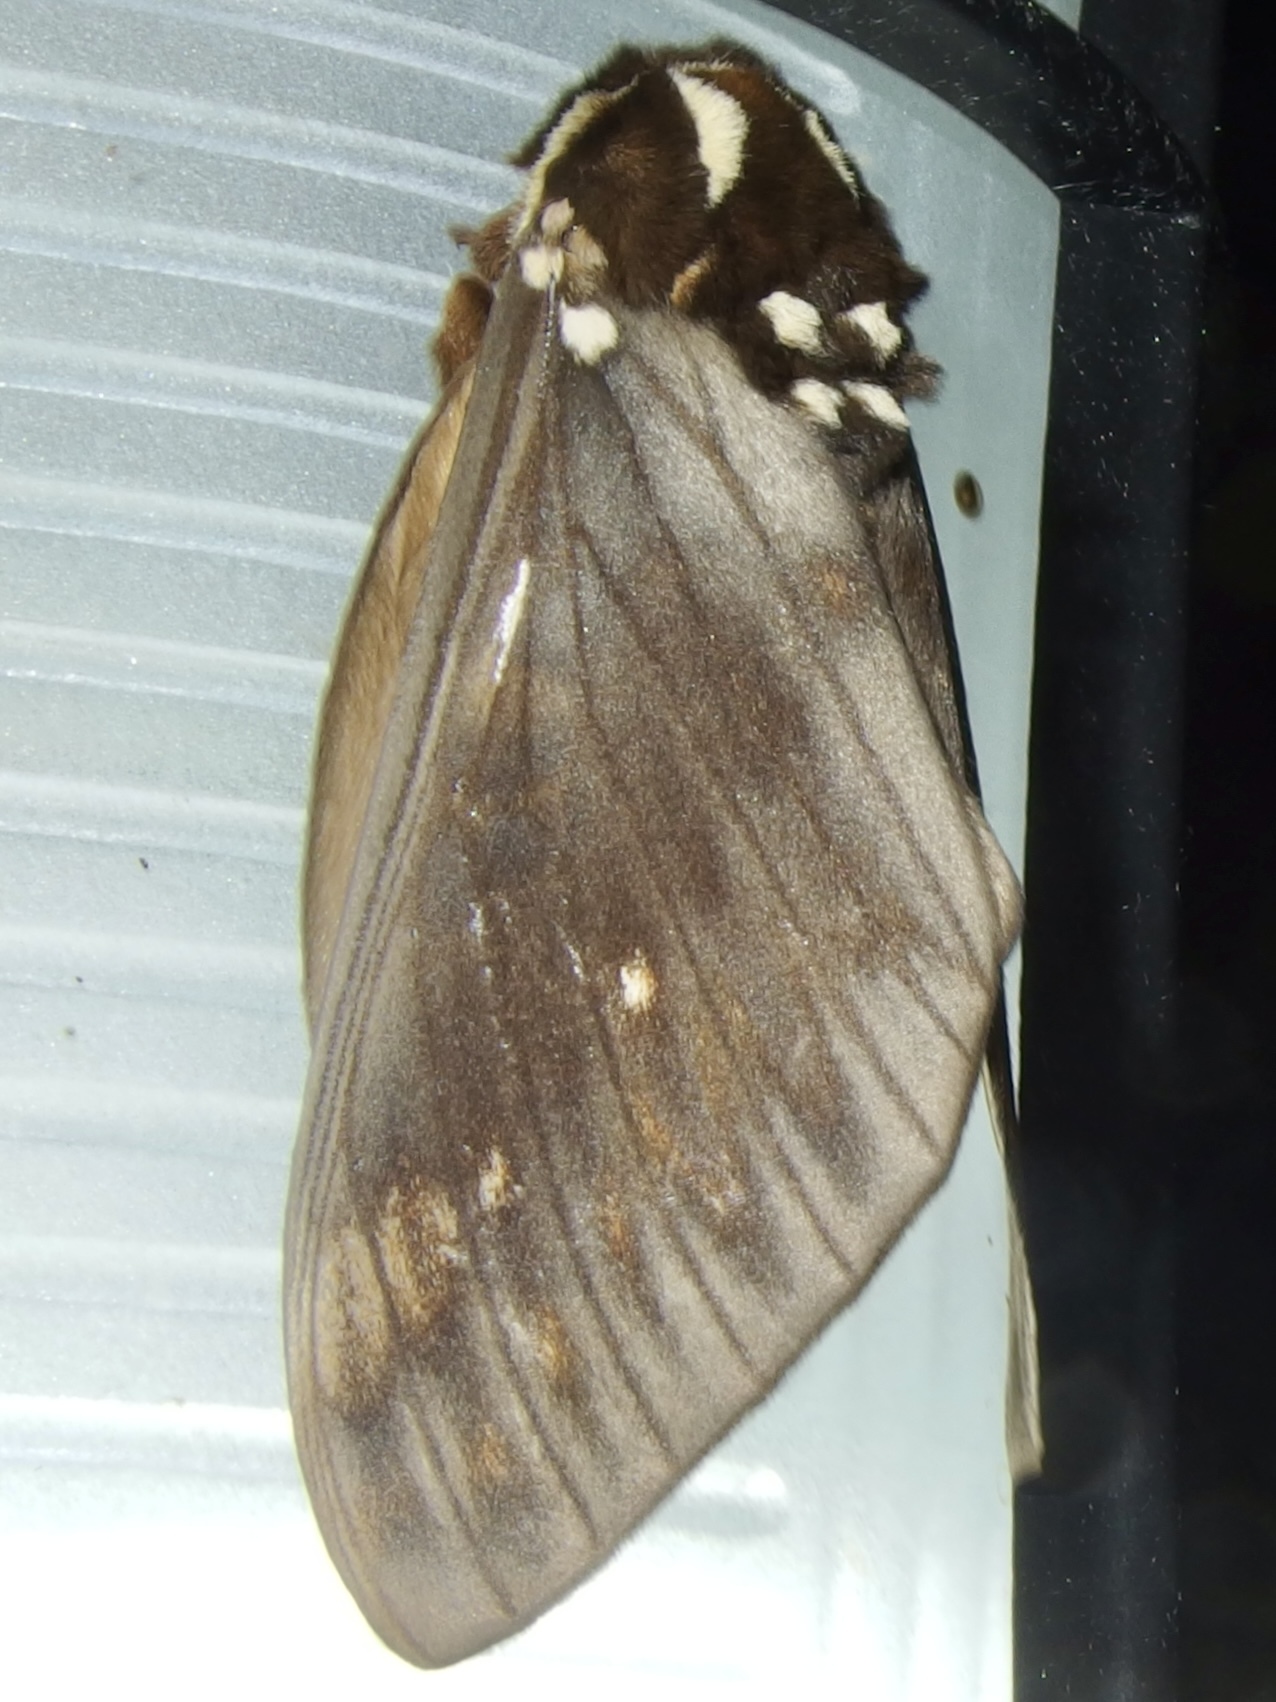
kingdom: Animalia
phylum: Arthropoda
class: Insecta
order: Lepidoptera
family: Saturniidae
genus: Citheronia
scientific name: Citheronia bellavista
